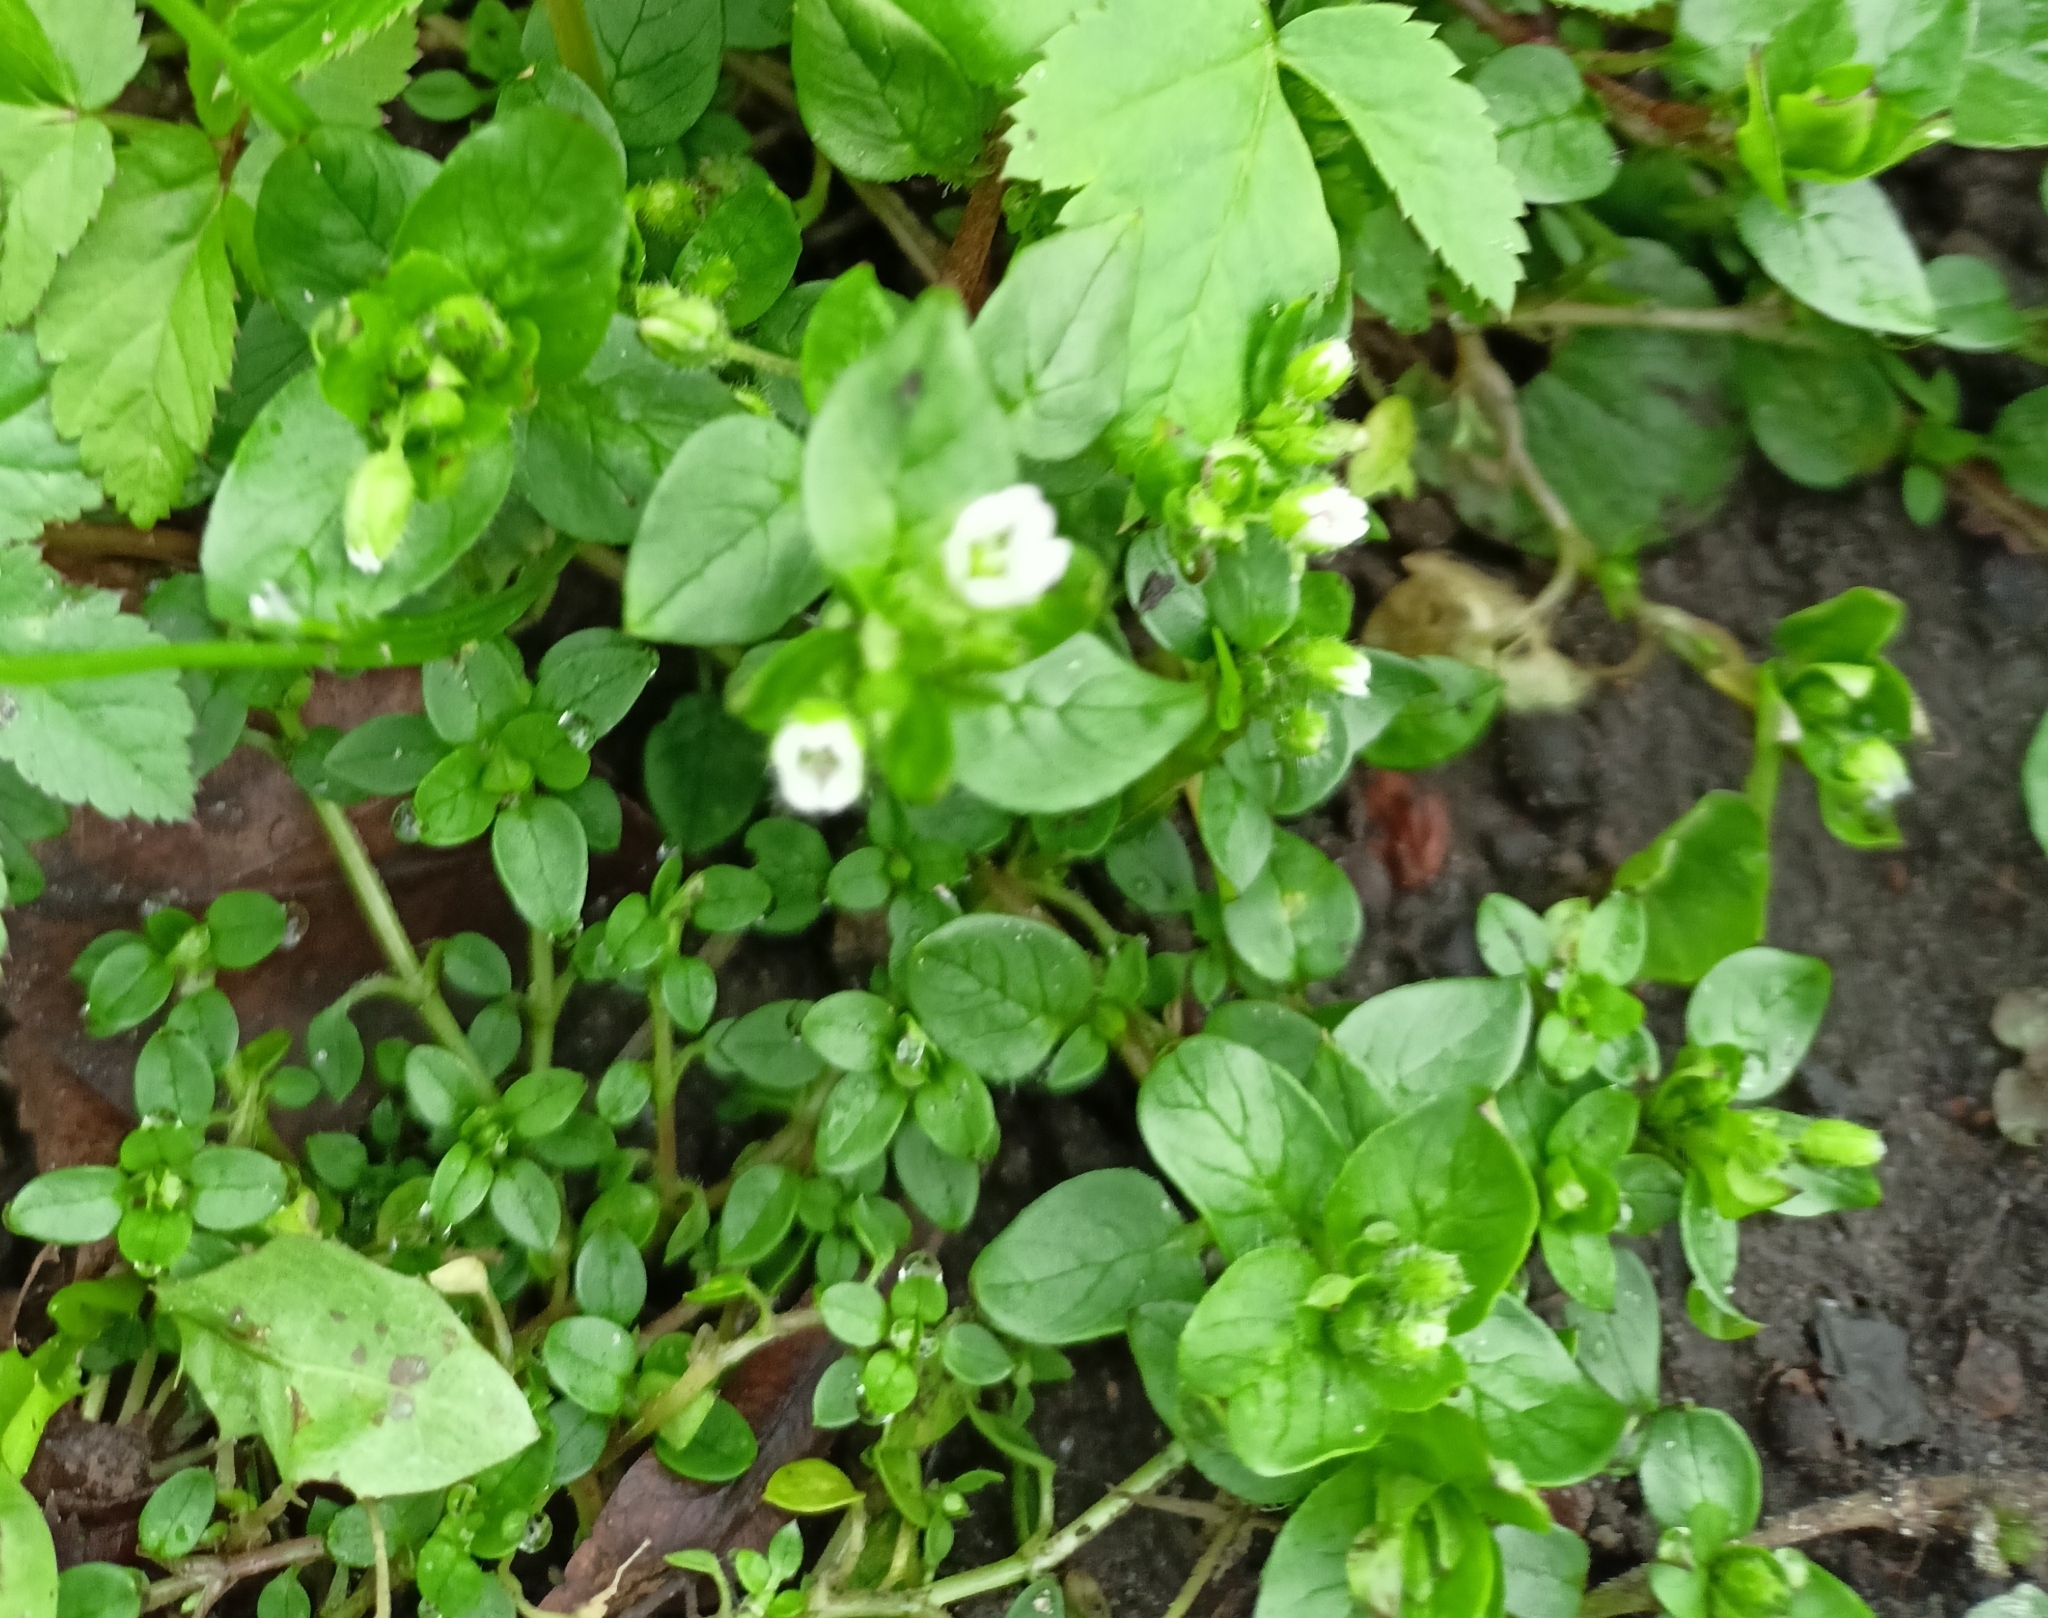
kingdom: Plantae
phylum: Tracheophyta
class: Magnoliopsida
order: Caryophyllales
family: Caryophyllaceae
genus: Stellaria
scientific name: Stellaria media
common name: Common chickweed
